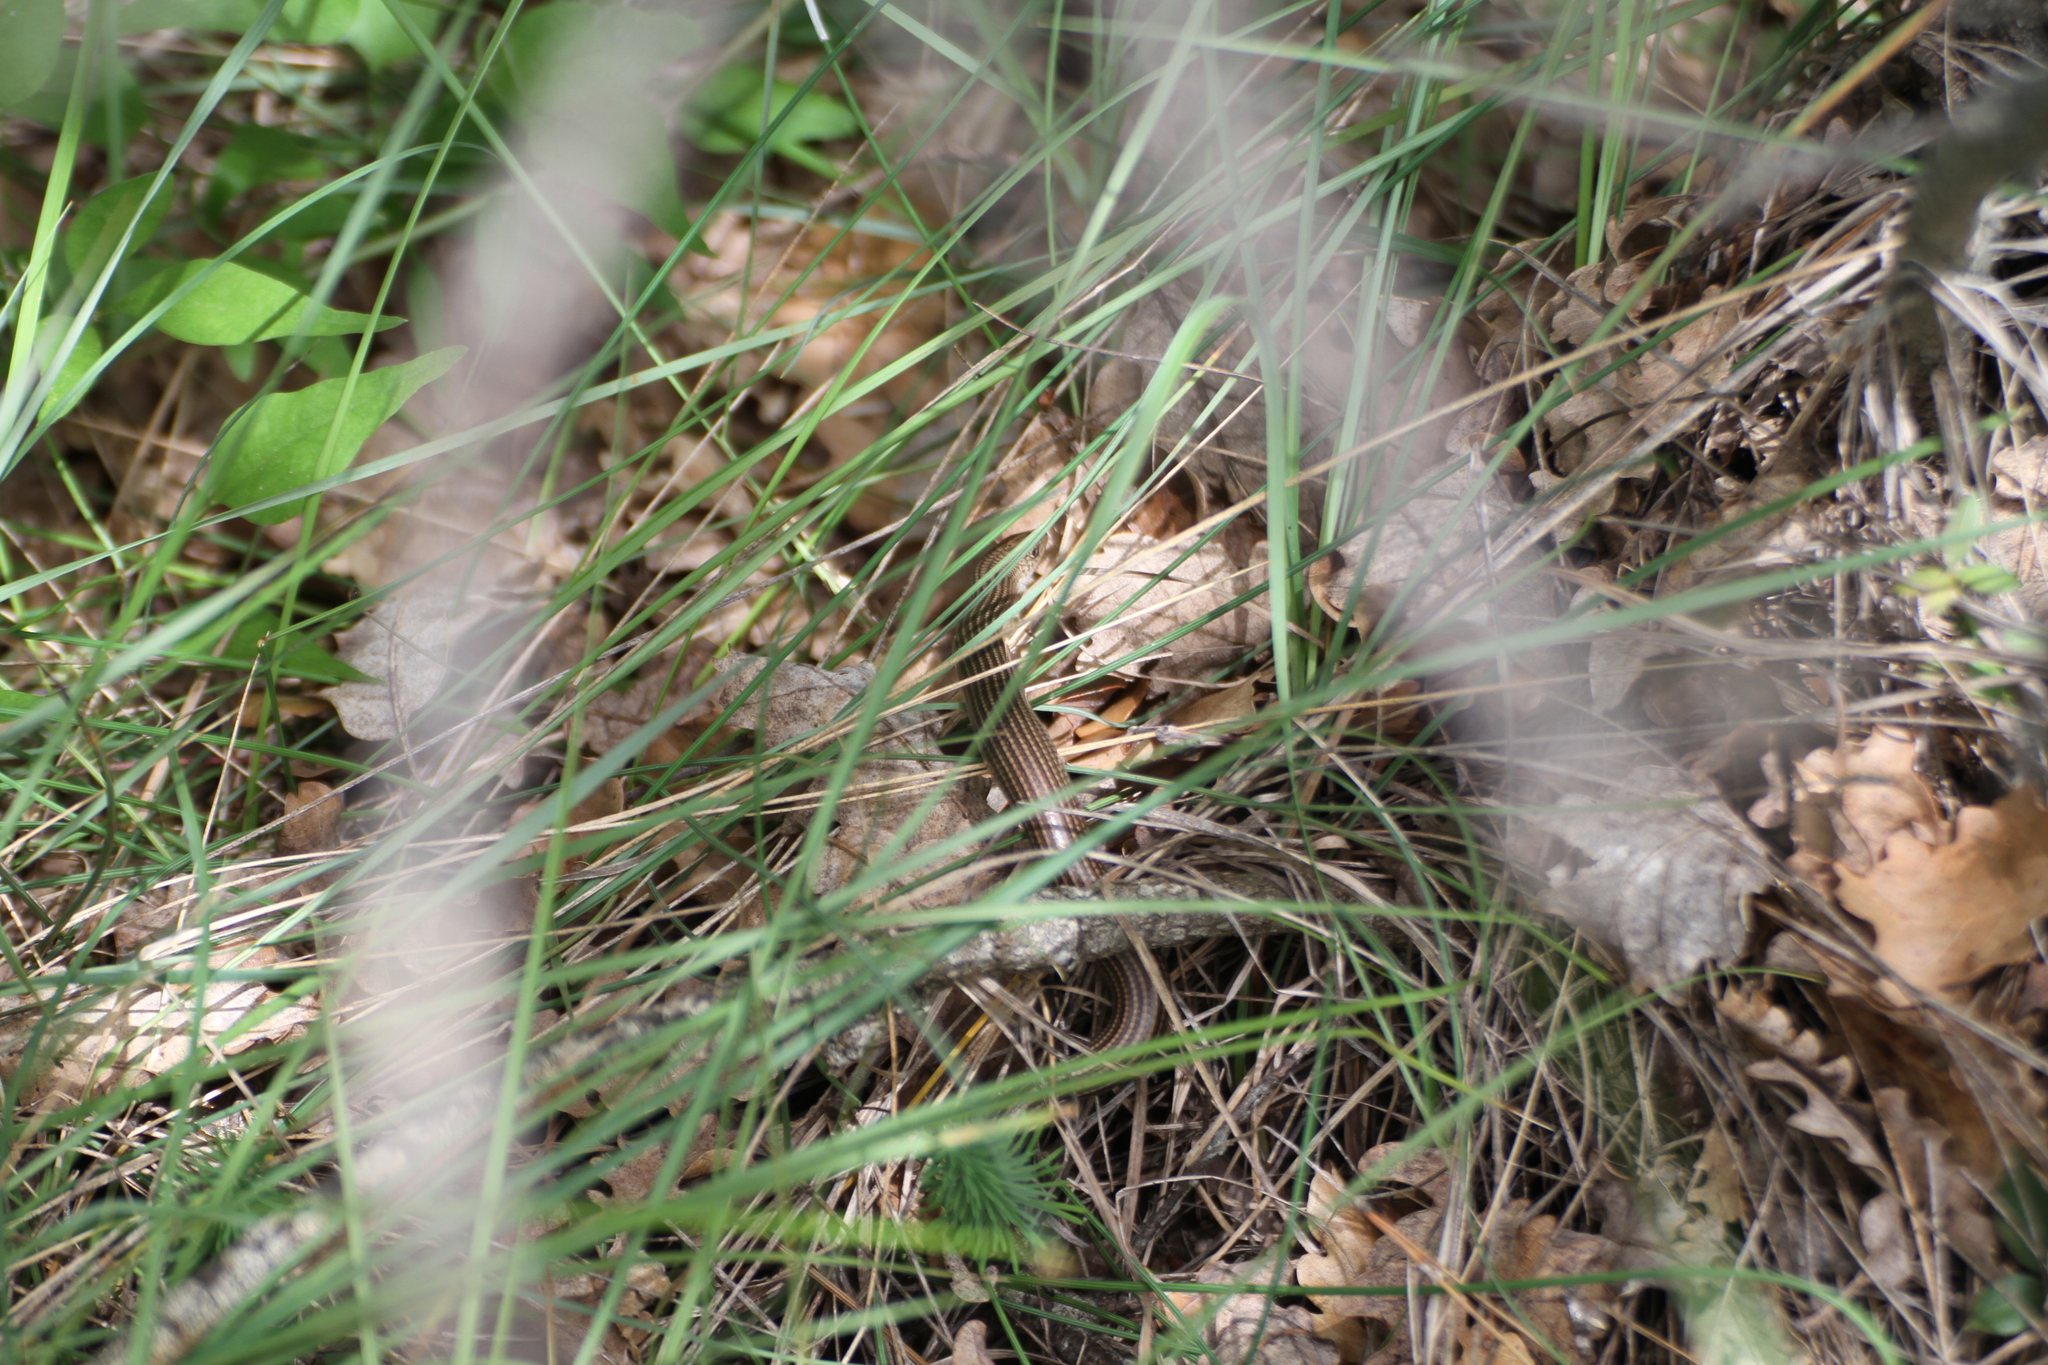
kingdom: Animalia
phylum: Chordata
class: Squamata
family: Scincidae
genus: Chalcides
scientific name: Chalcides striatus
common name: Western (or iberian) three-toed skink
